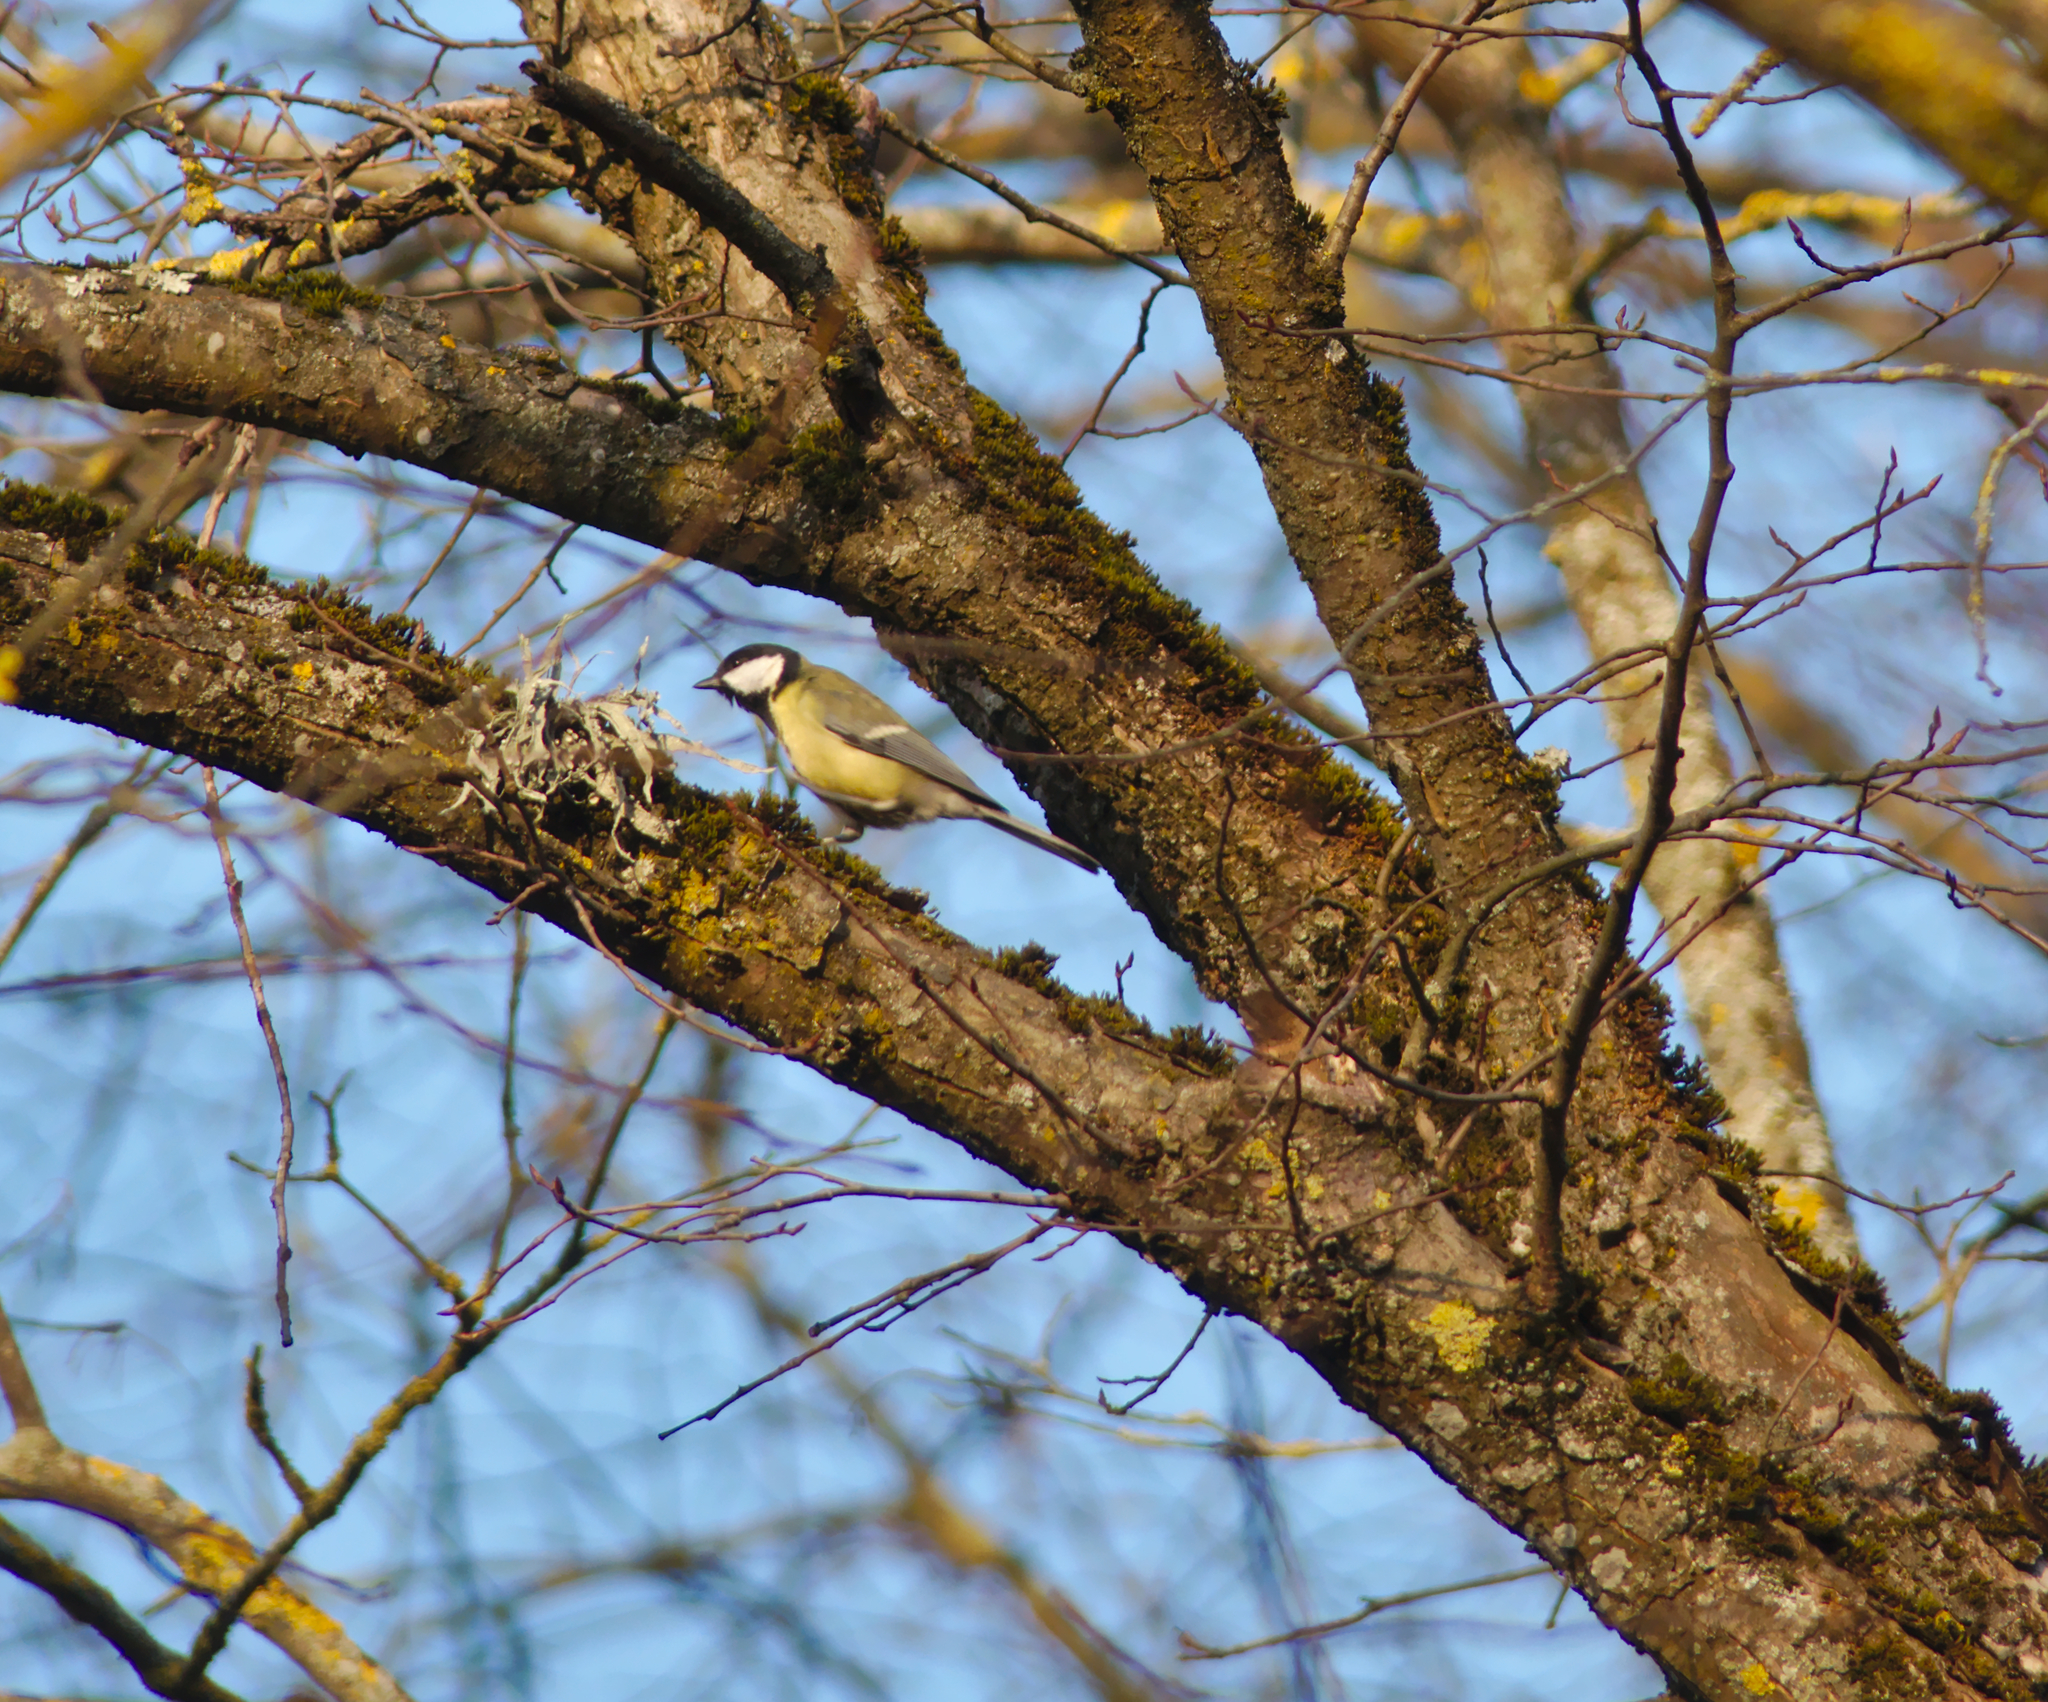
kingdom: Animalia
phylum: Chordata
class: Aves
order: Passeriformes
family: Paridae
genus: Parus
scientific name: Parus major
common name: Great tit
